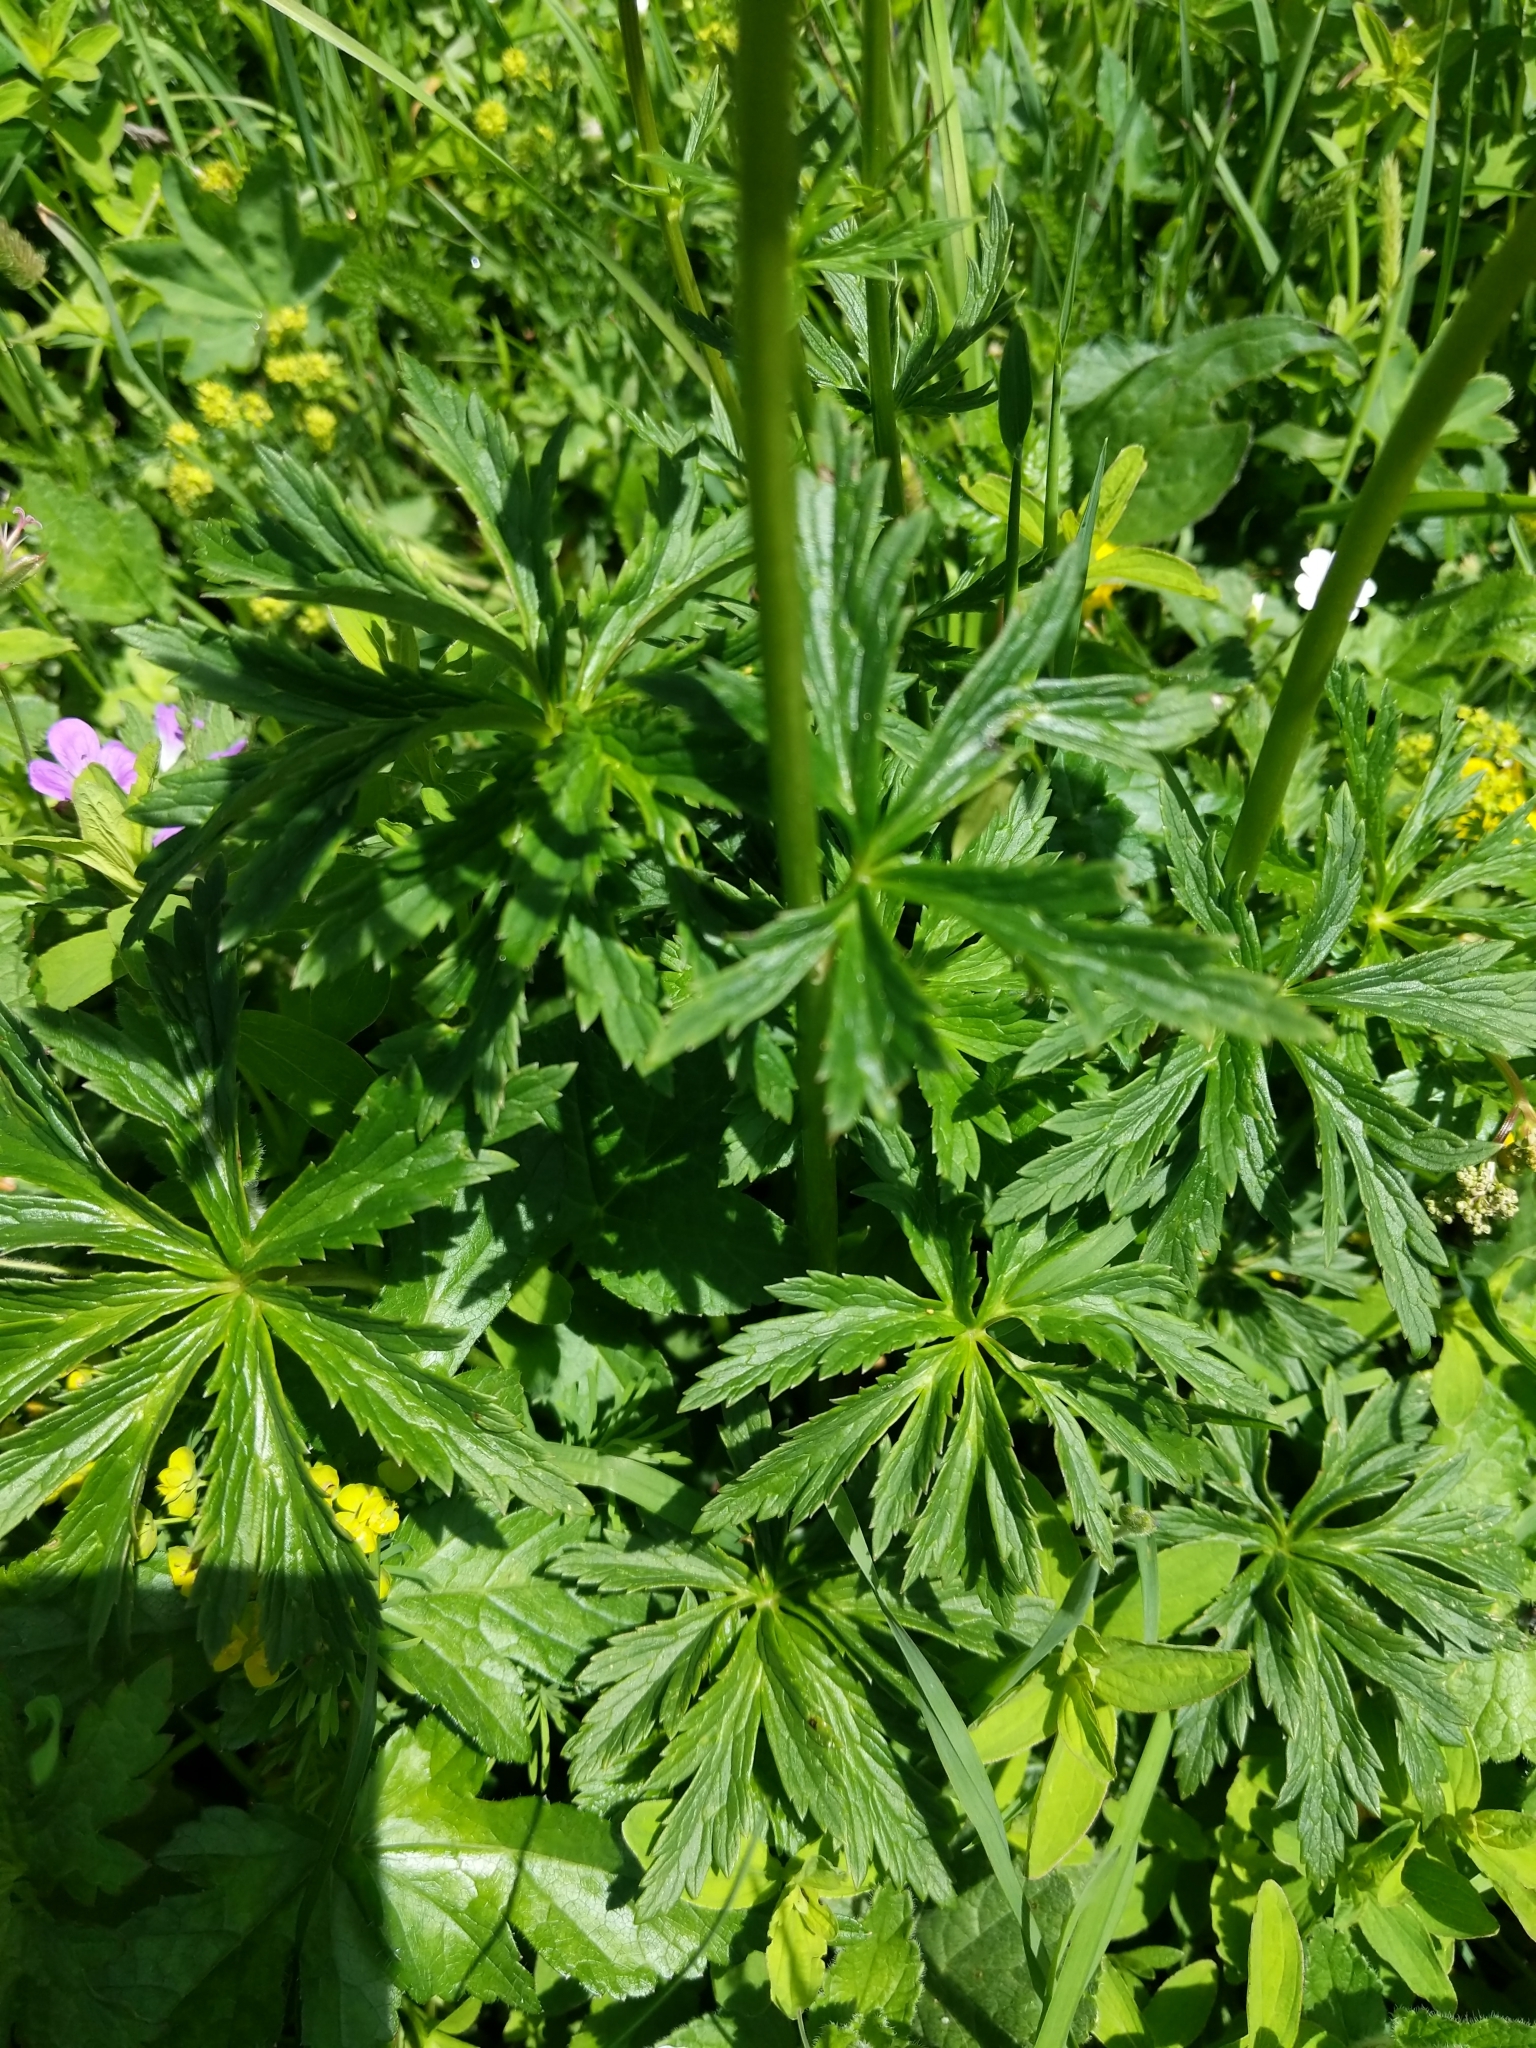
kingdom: Plantae
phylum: Tracheophyta
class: Magnoliopsida
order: Ranunculales
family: Ranunculaceae
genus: Trollius
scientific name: Trollius europaeus
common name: European globeflower
